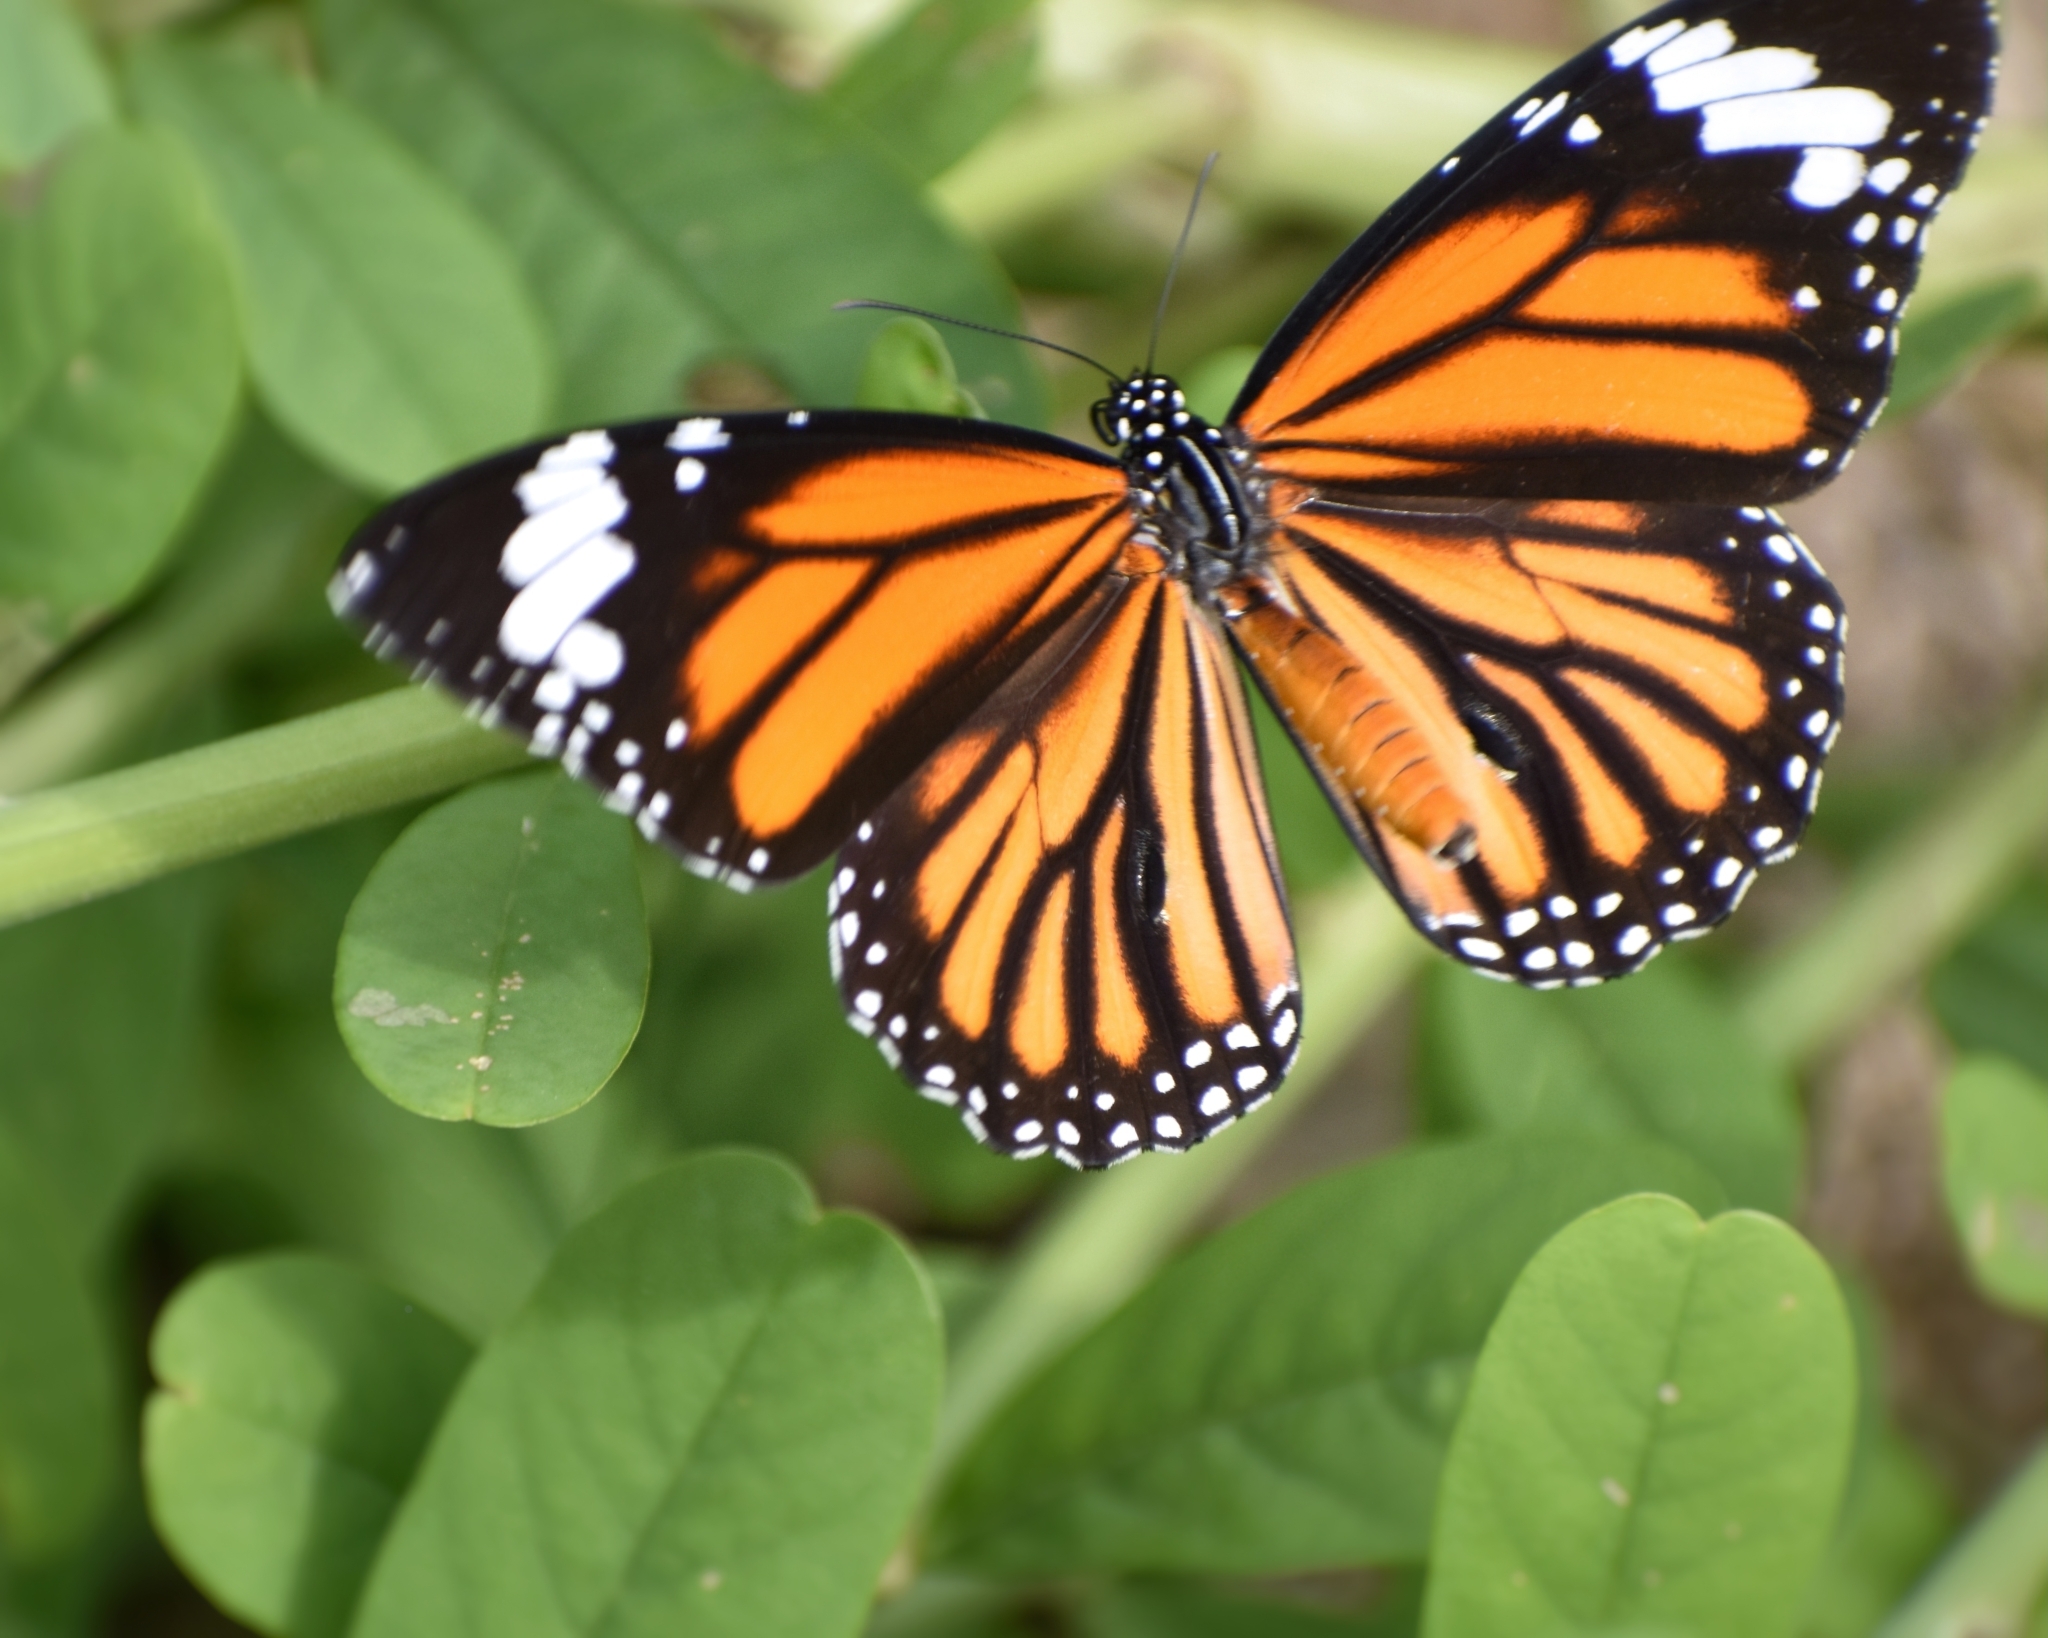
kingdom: Animalia
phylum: Arthropoda
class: Insecta
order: Lepidoptera
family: Nymphalidae
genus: Danaus
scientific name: Danaus genutia
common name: Common tiger butterfly
